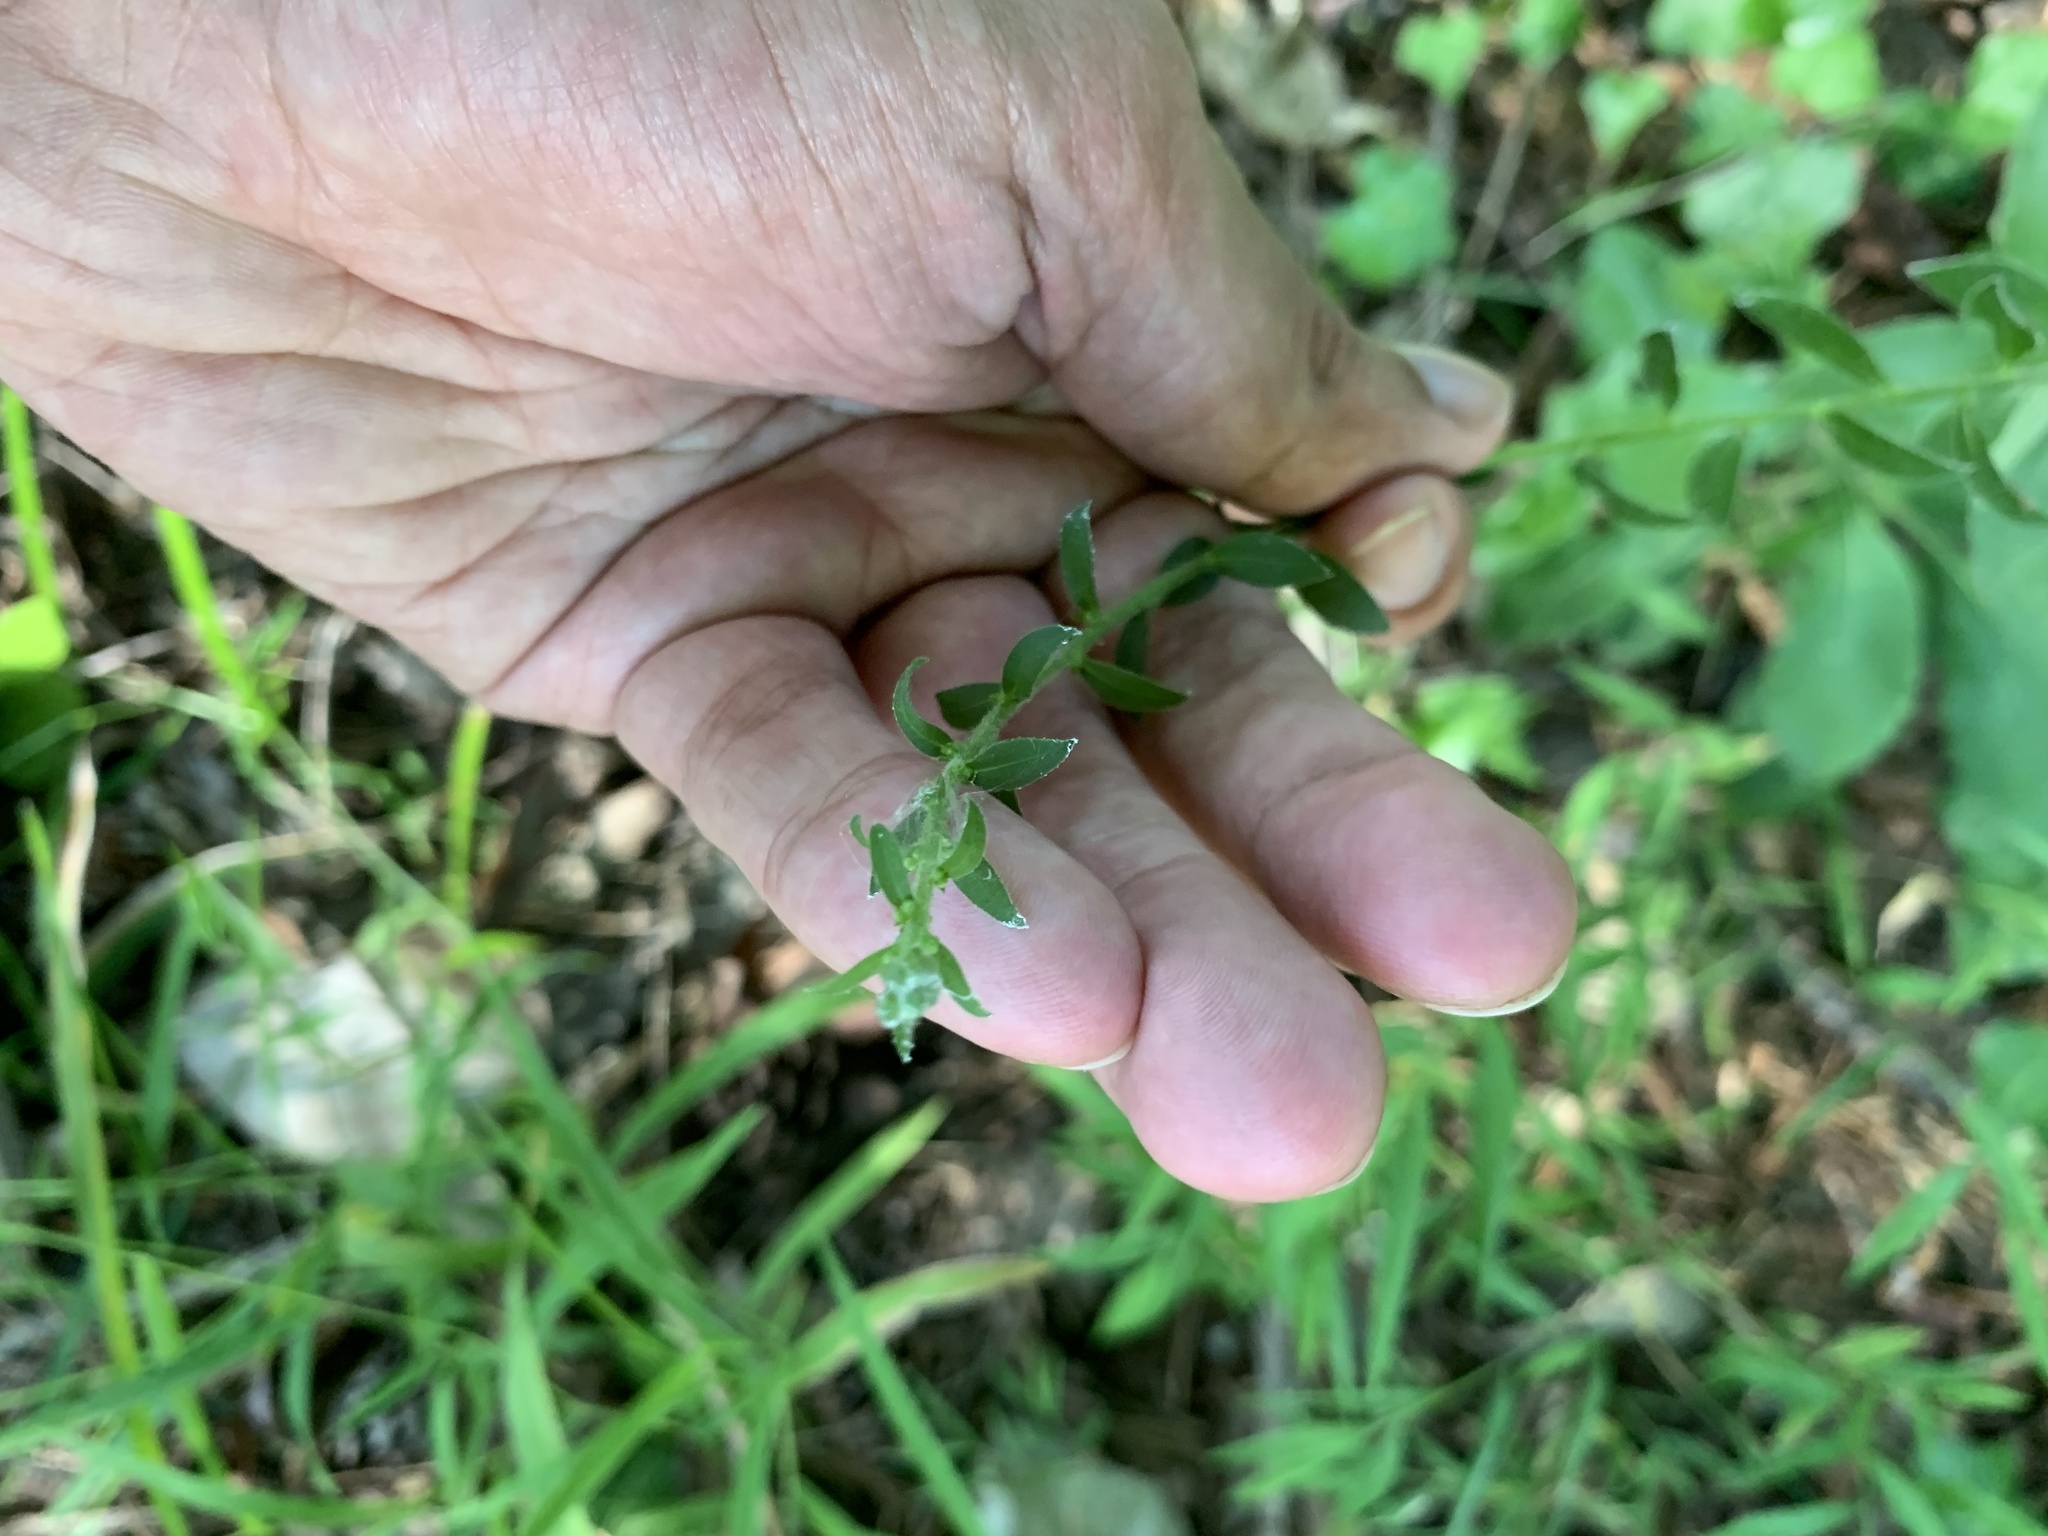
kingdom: Plantae
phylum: Tracheophyta
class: Magnoliopsida
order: Asterales
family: Asteraceae
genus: Solidago
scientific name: Solidago bicolor
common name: Silverrod
